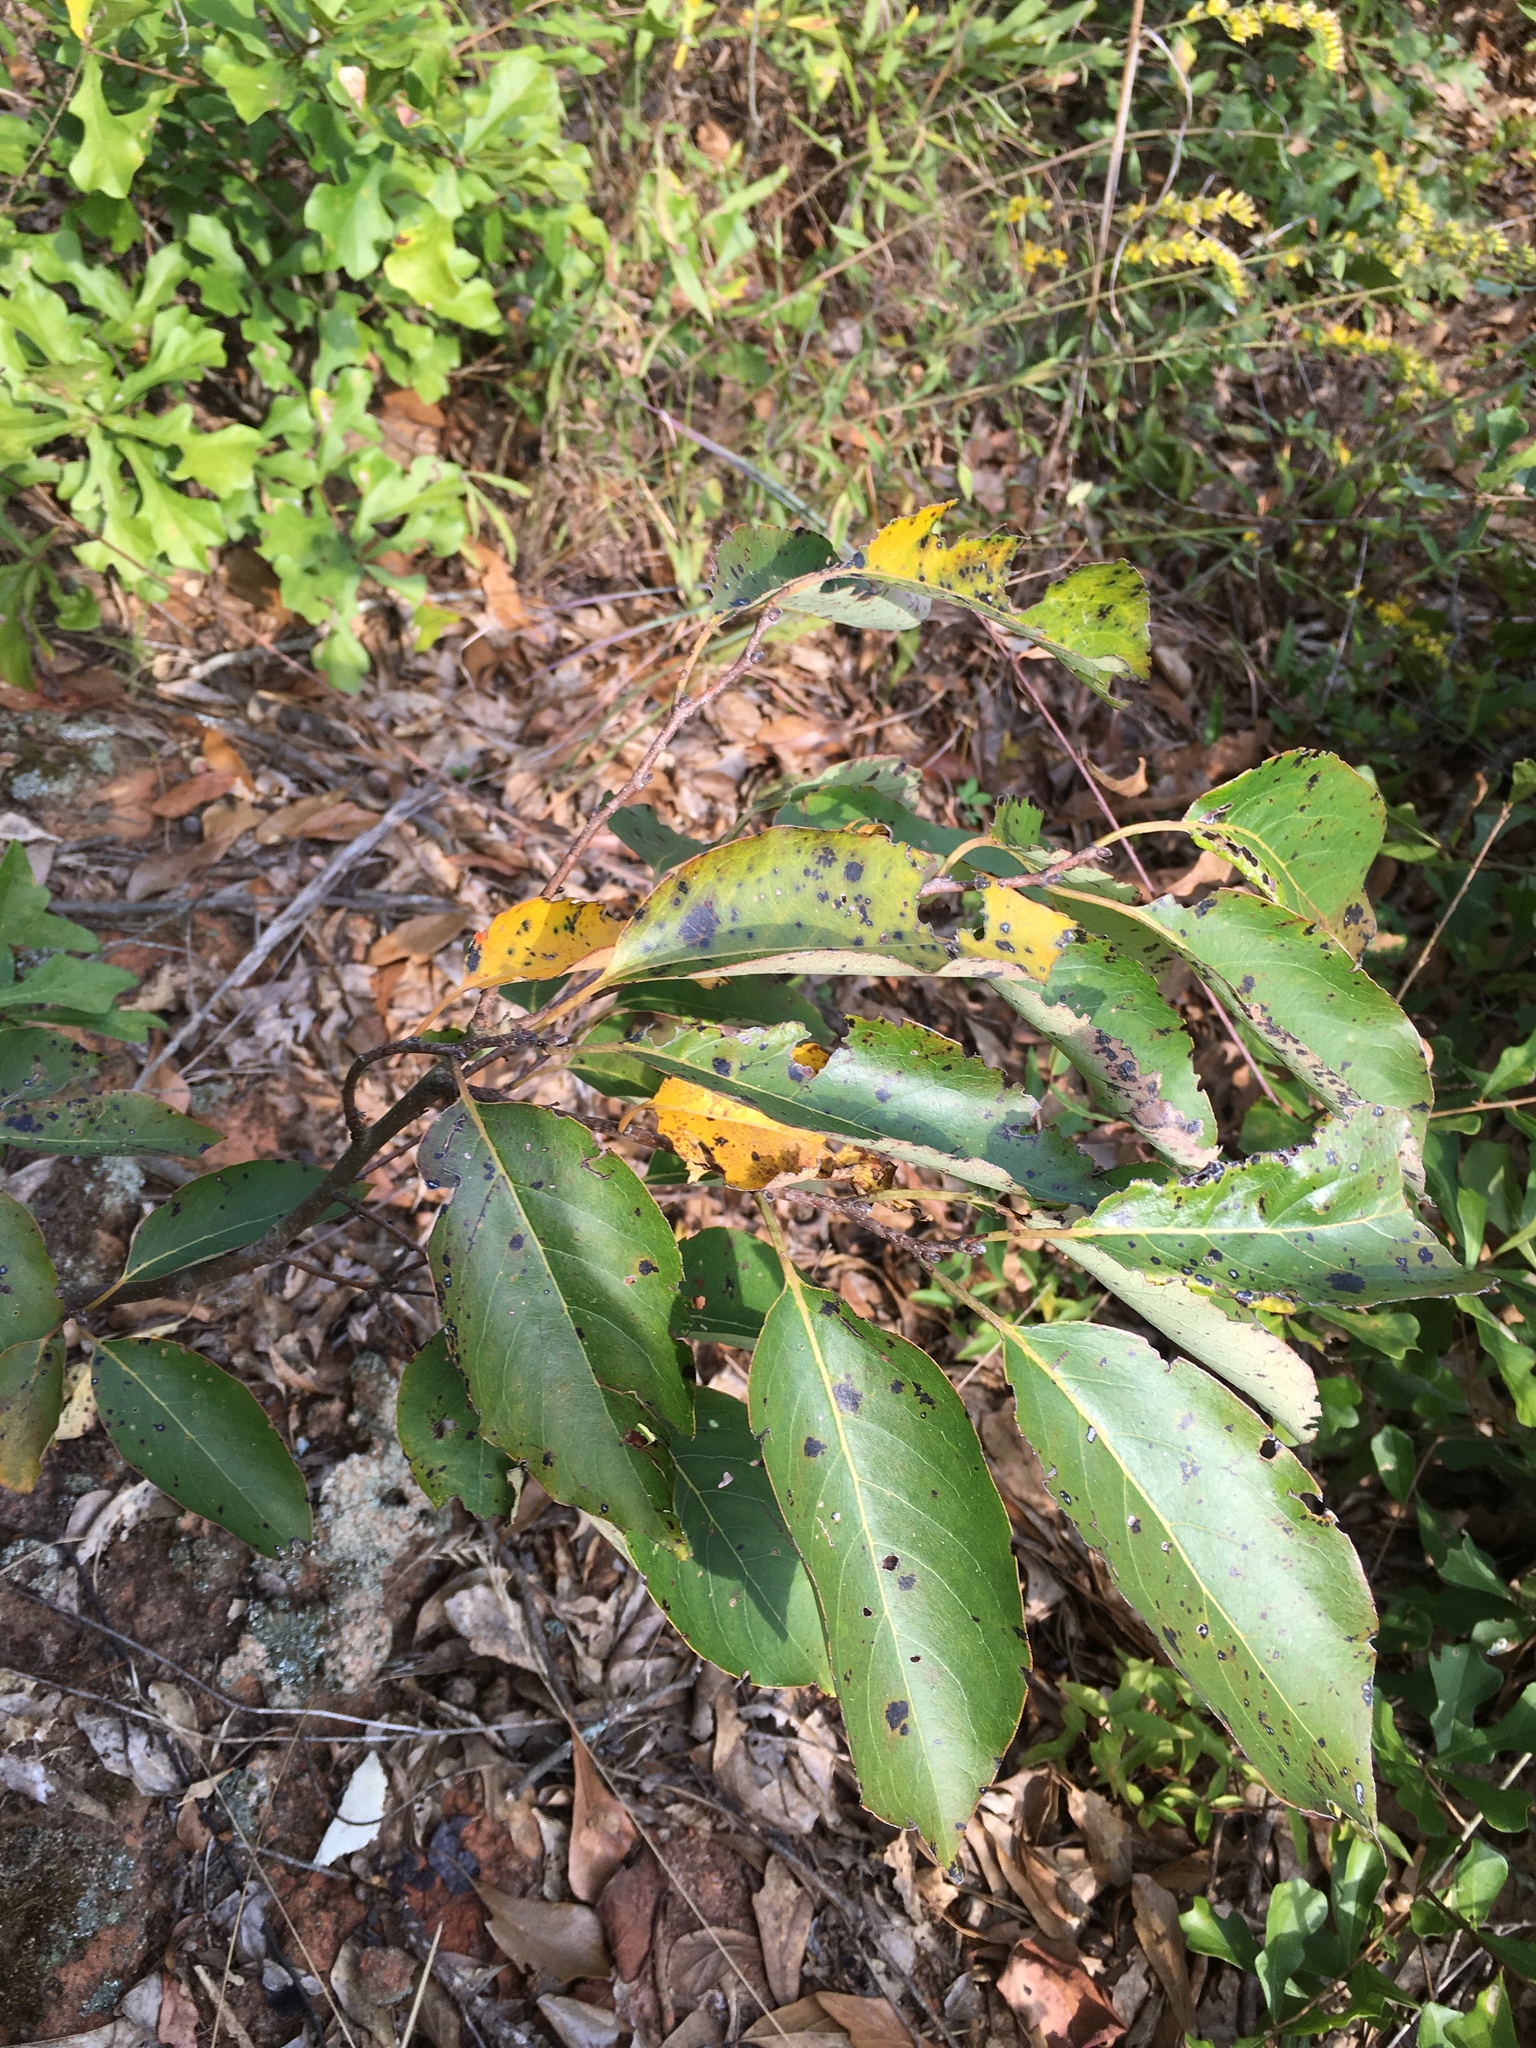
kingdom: Plantae
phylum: Tracheophyta
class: Magnoliopsida
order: Ericales
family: Ebenaceae
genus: Diospyros
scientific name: Diospyros virginiana
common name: Persimmon
